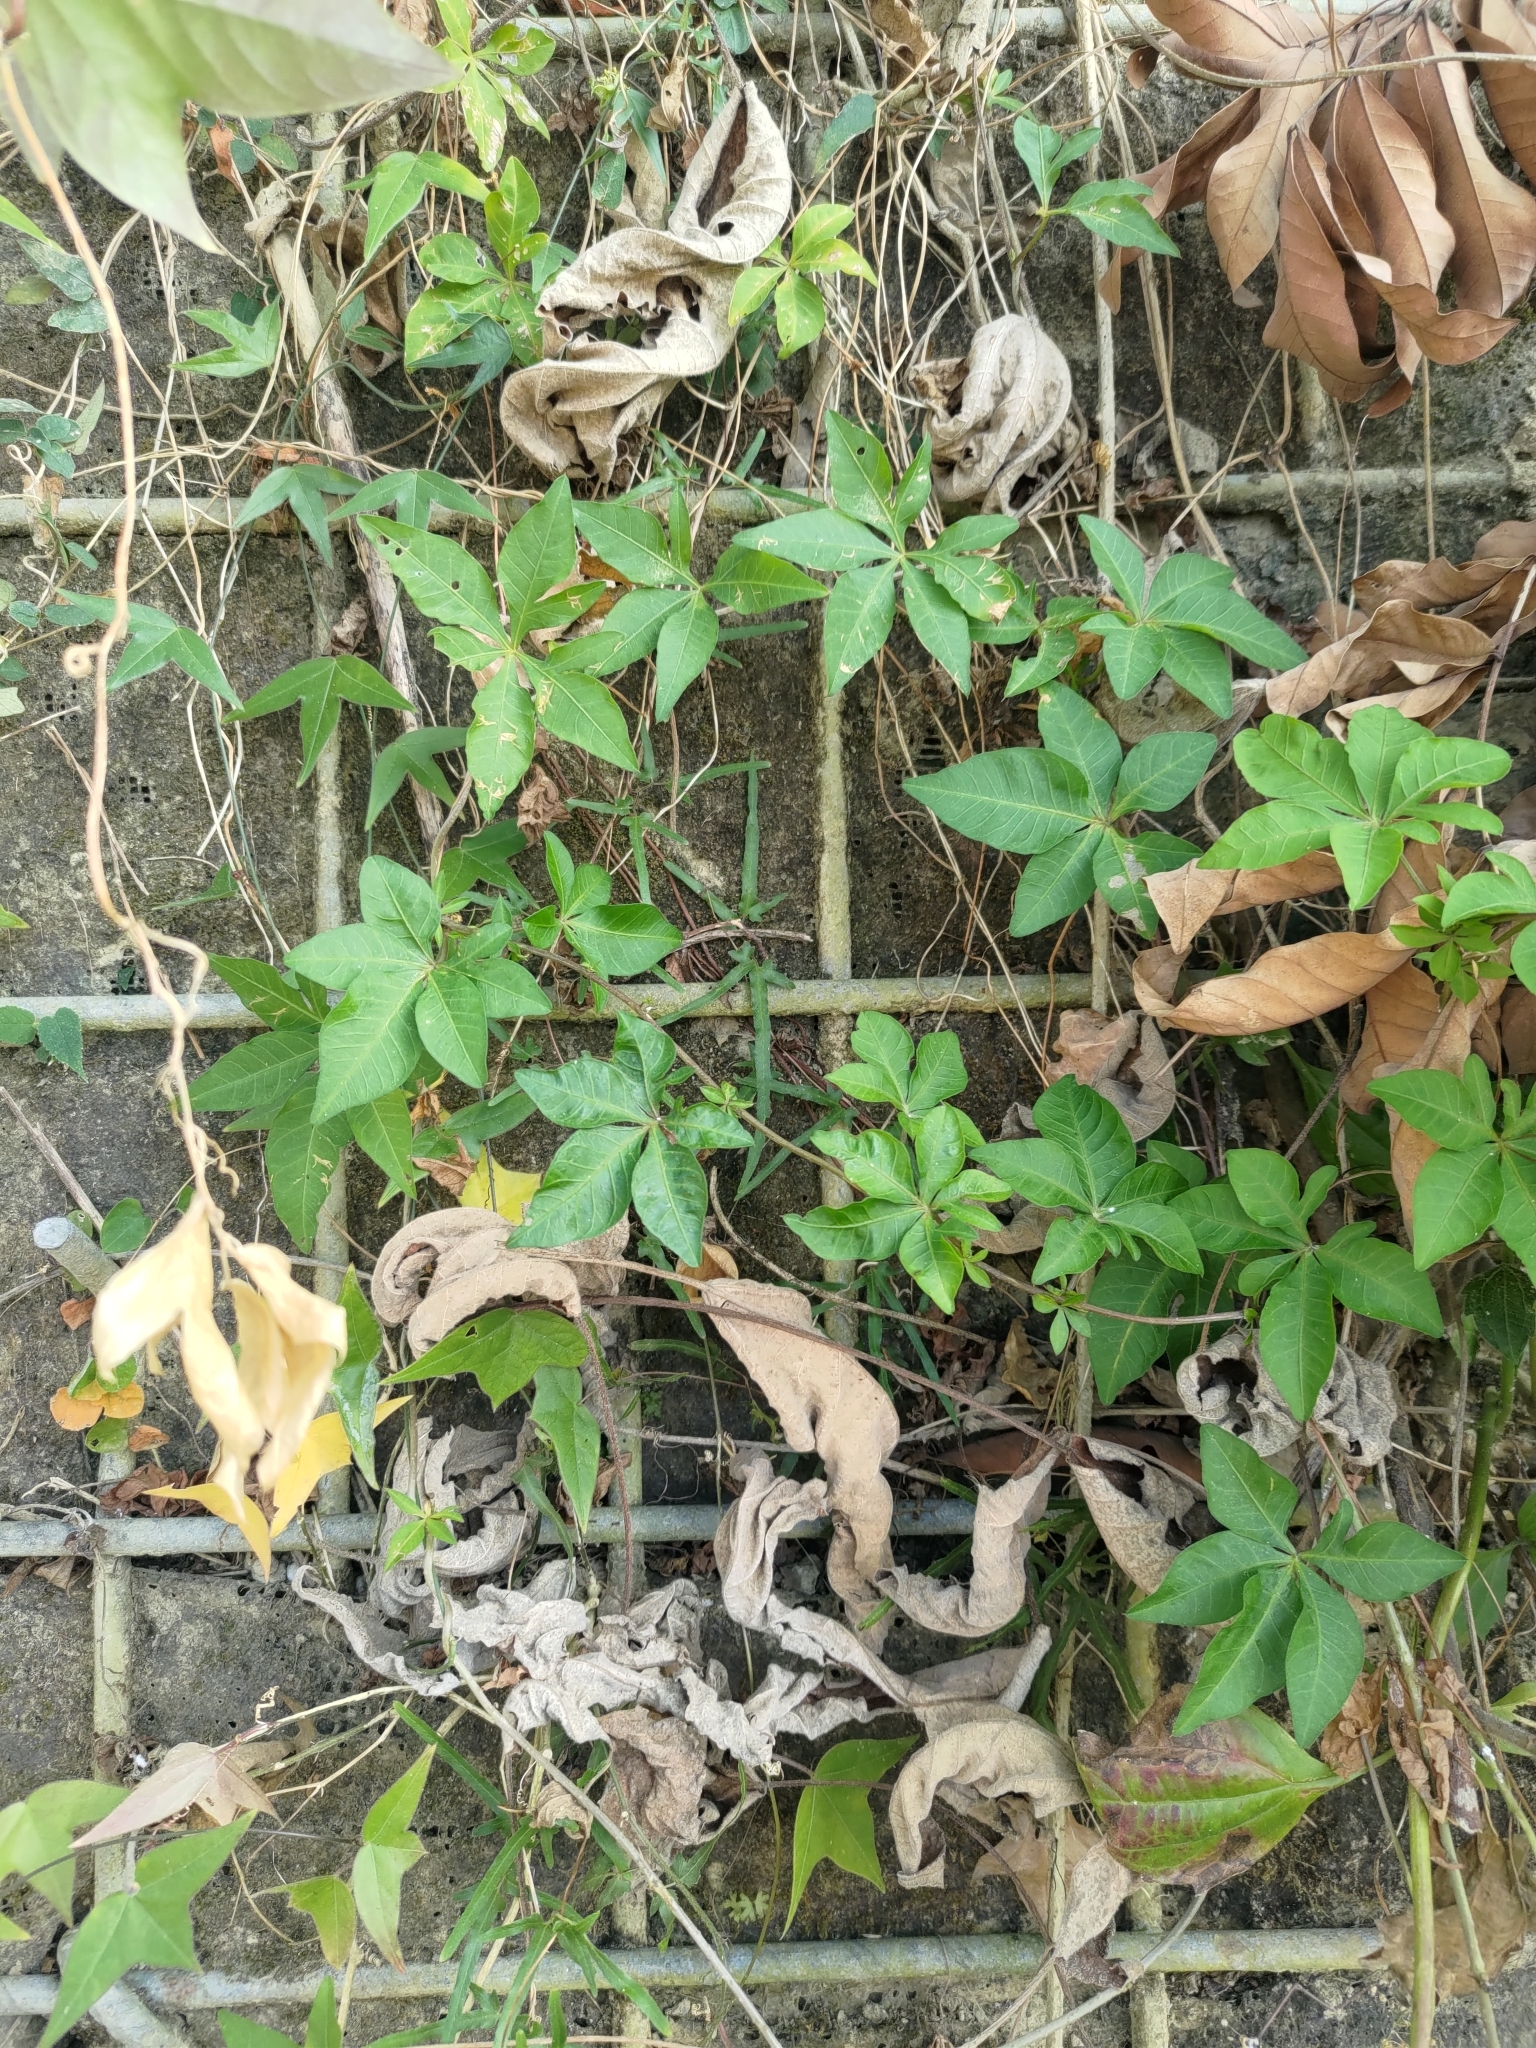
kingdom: Plantae
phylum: Tracheophyta
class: Magnoliopsida
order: Solanales
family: Convolvulaceae
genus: Ipomoea
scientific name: Ipomoea cairica
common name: Mile a minute vine
